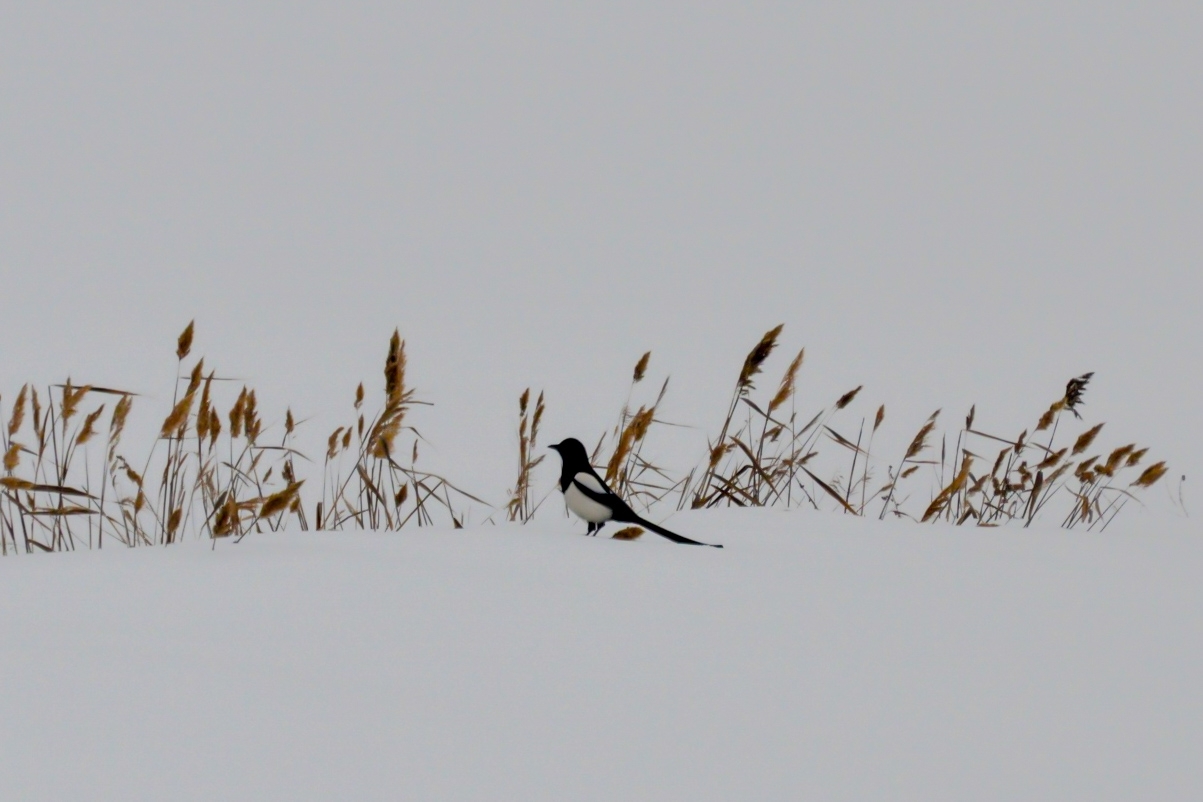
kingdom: Animalia
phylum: Chordata
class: Aves
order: Passeriformes
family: Corvidae
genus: Pica
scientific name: Pica pica
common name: Eurasian magpie
